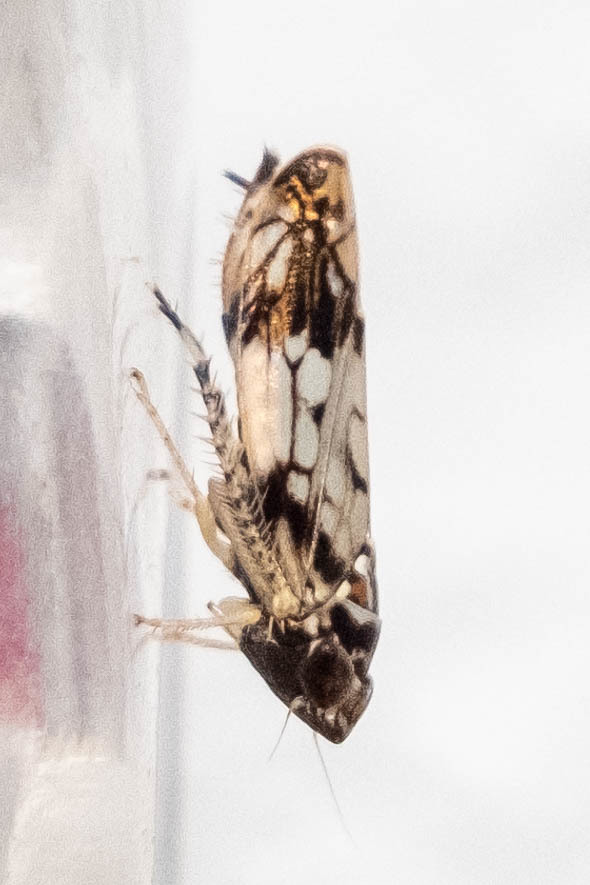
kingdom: Animalia
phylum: Arthropoda
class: Insecta
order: Hemiptera
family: Cicadellidae
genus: Scaphoideus
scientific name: Scaphoideus obtusus
